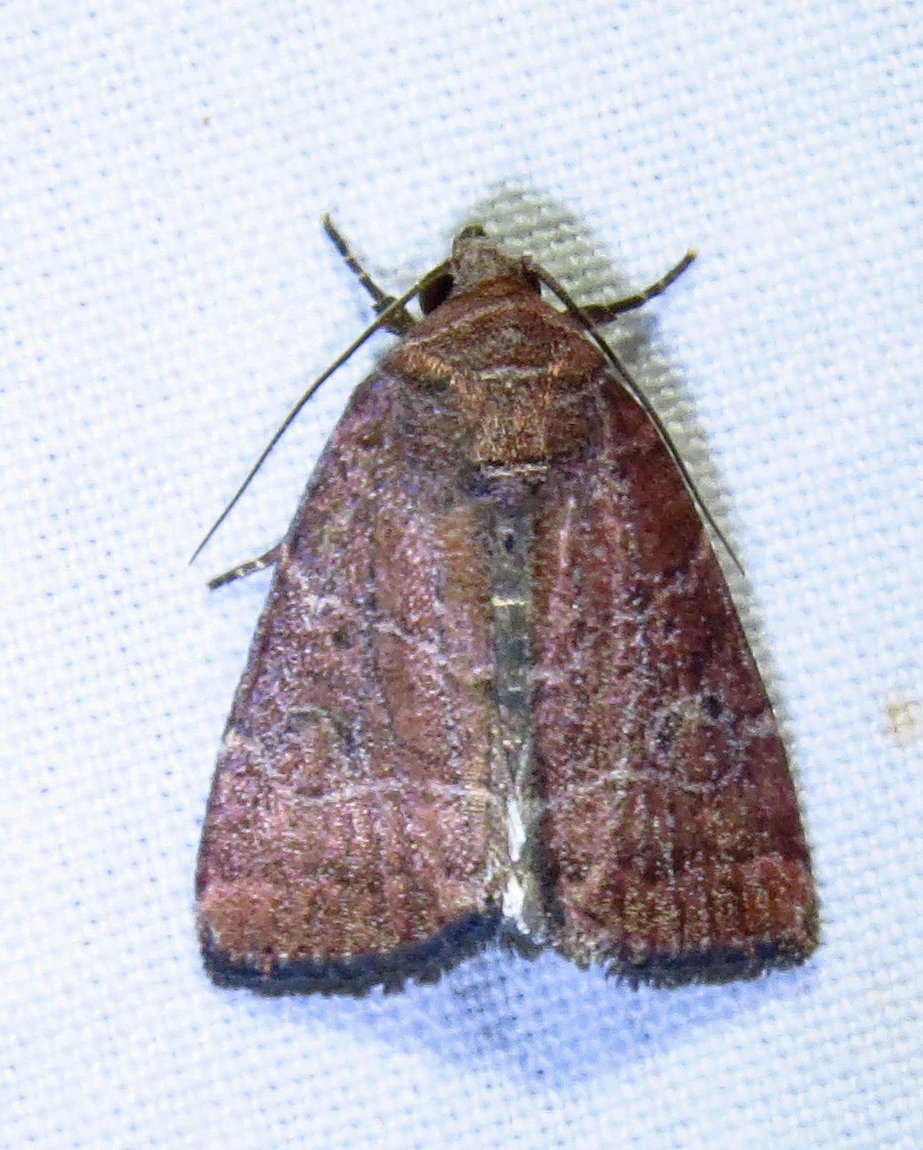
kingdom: Animalia
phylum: Arthropoda
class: Insecta
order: Lepidoptera
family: Noctuidae
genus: Elaphria
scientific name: Elaphria grata
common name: Grateful midget moth
